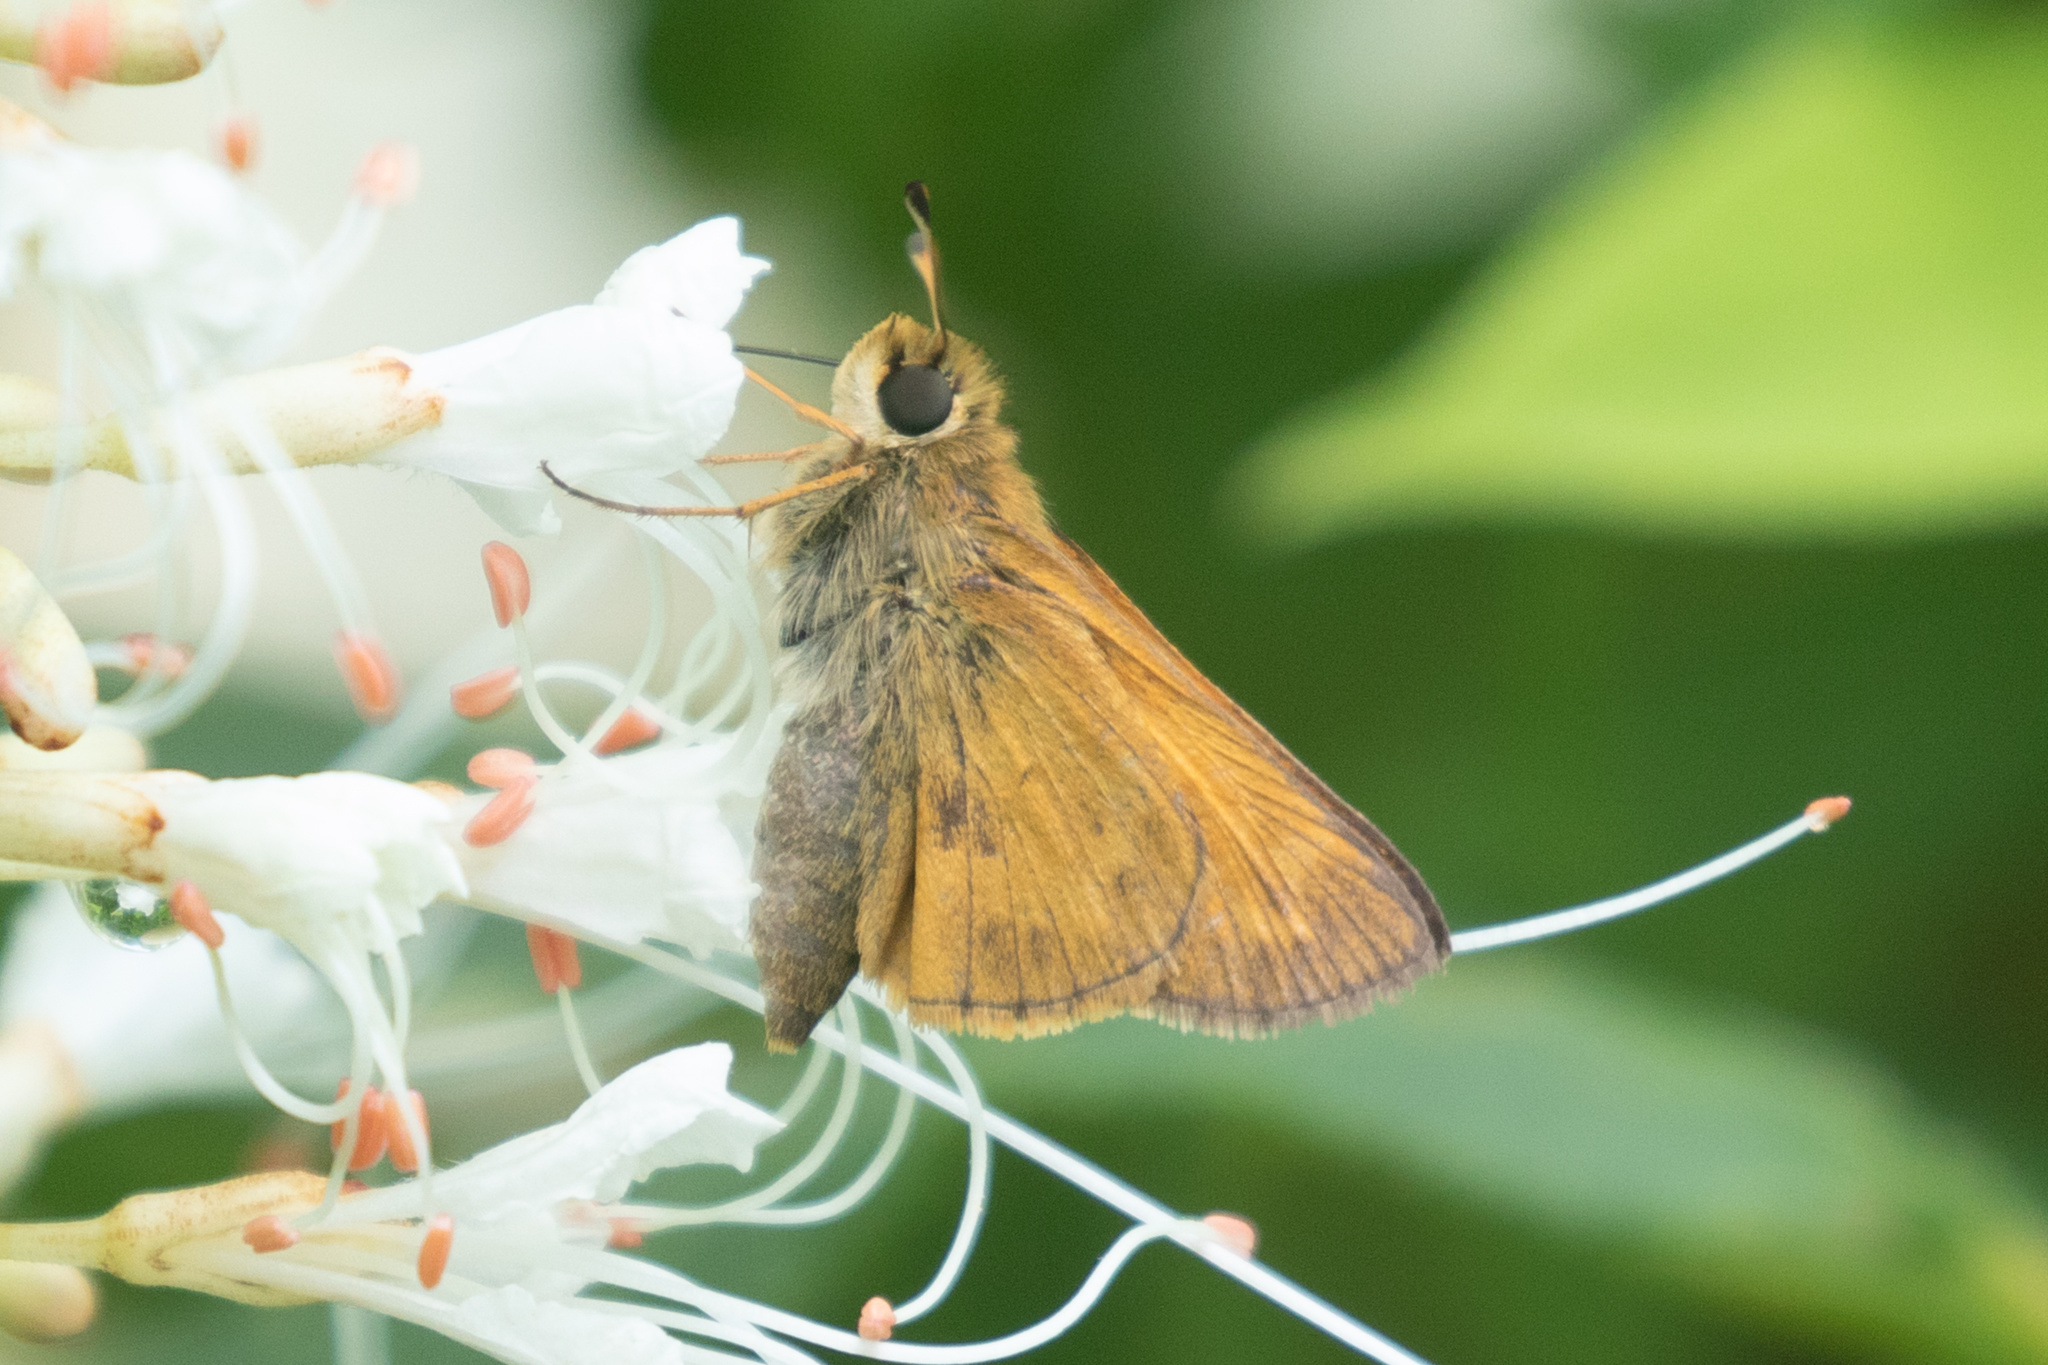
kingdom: Animalia
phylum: Arthropoda
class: Insecta
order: Lepidoptera
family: Hesperiidae
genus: Atalopedes
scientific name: Atalopedes
